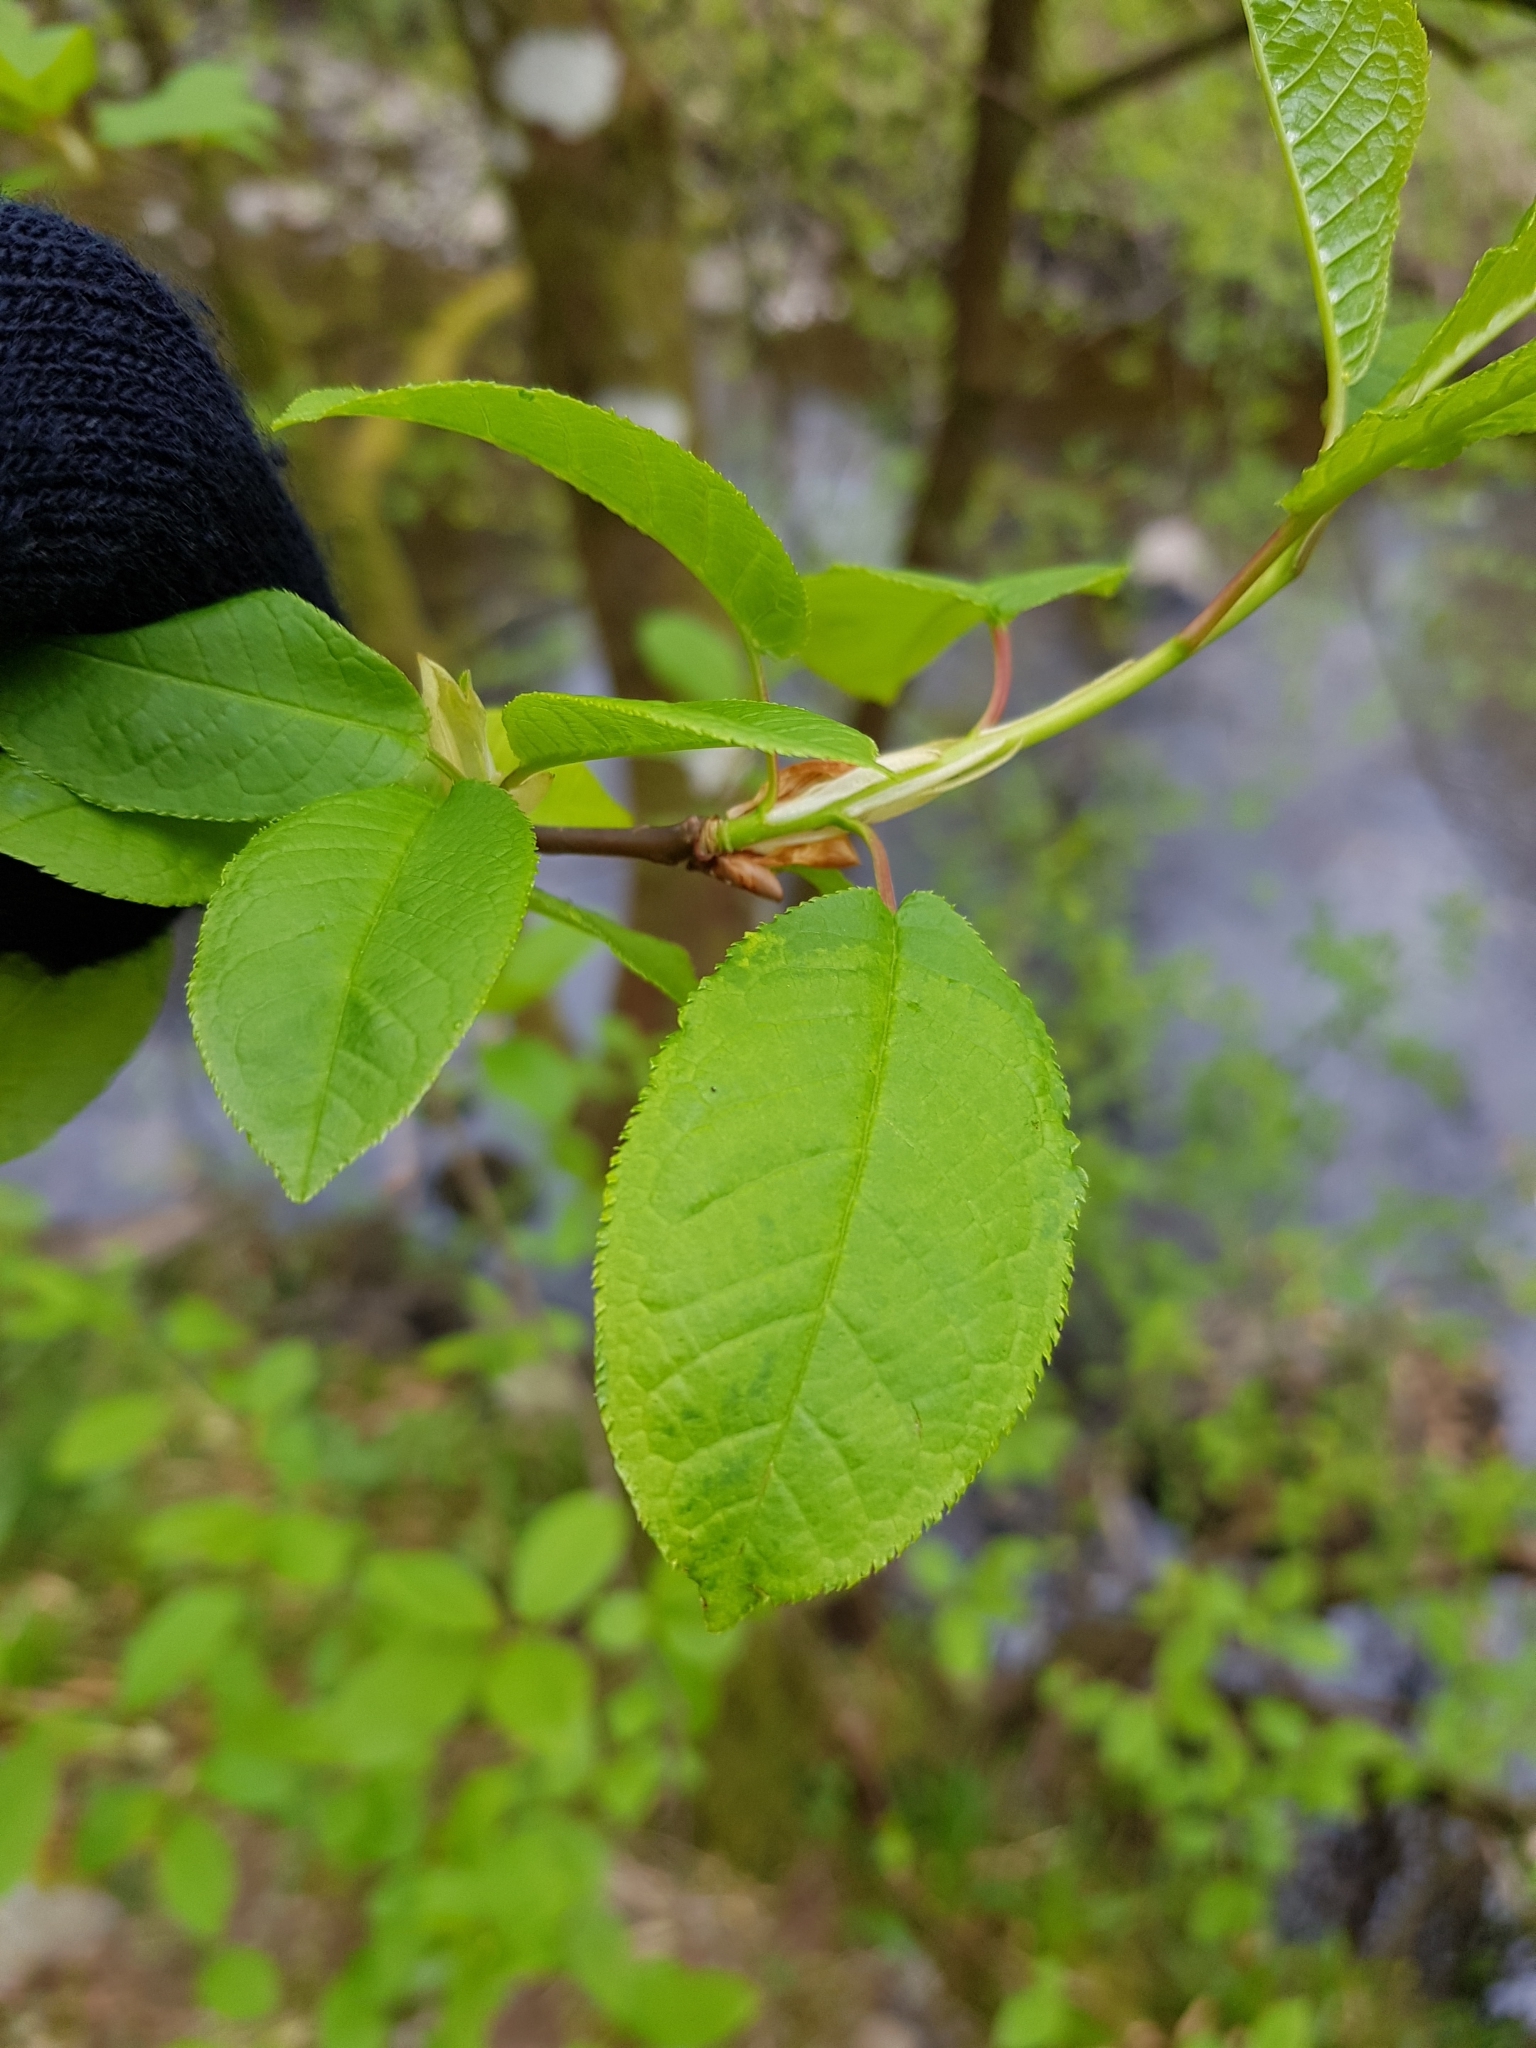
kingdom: Plantae
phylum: Tracheophyta
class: Magnoliopsida
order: Rosales
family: Rosaceae
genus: Prunus
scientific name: Prunus padus
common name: Bird cherry
